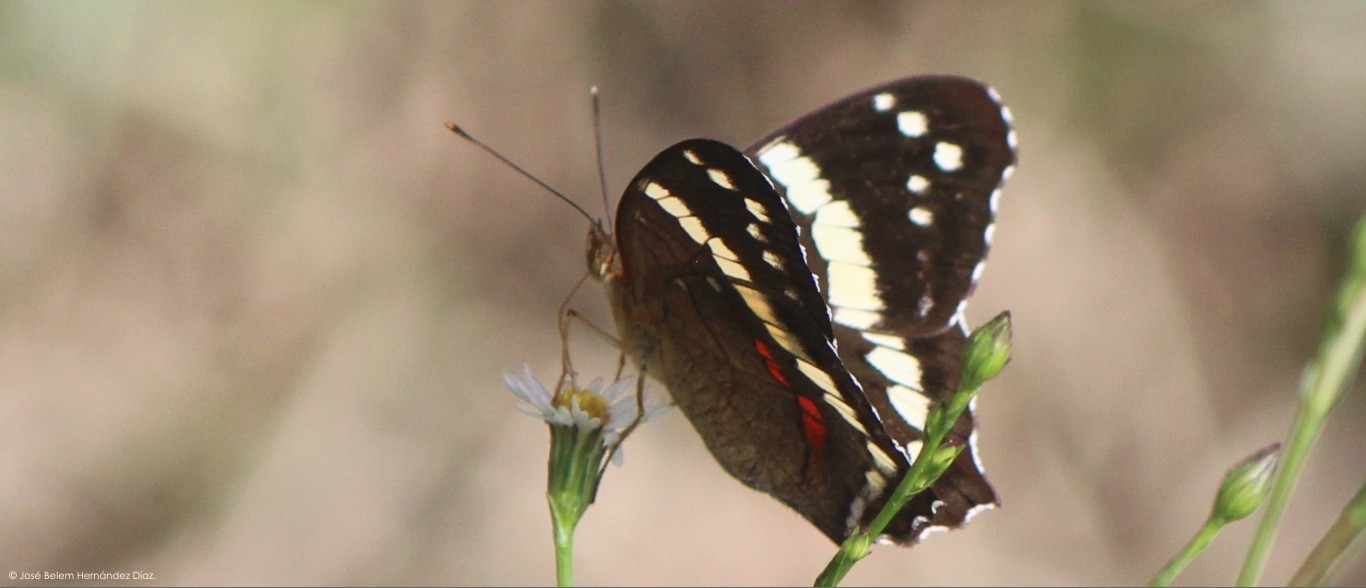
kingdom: Animalia
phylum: Arthropoda
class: Insecta
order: Lepidoptera
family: Nymphalidae
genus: Anartia
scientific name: Anartia fatima
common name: Banded peacock
